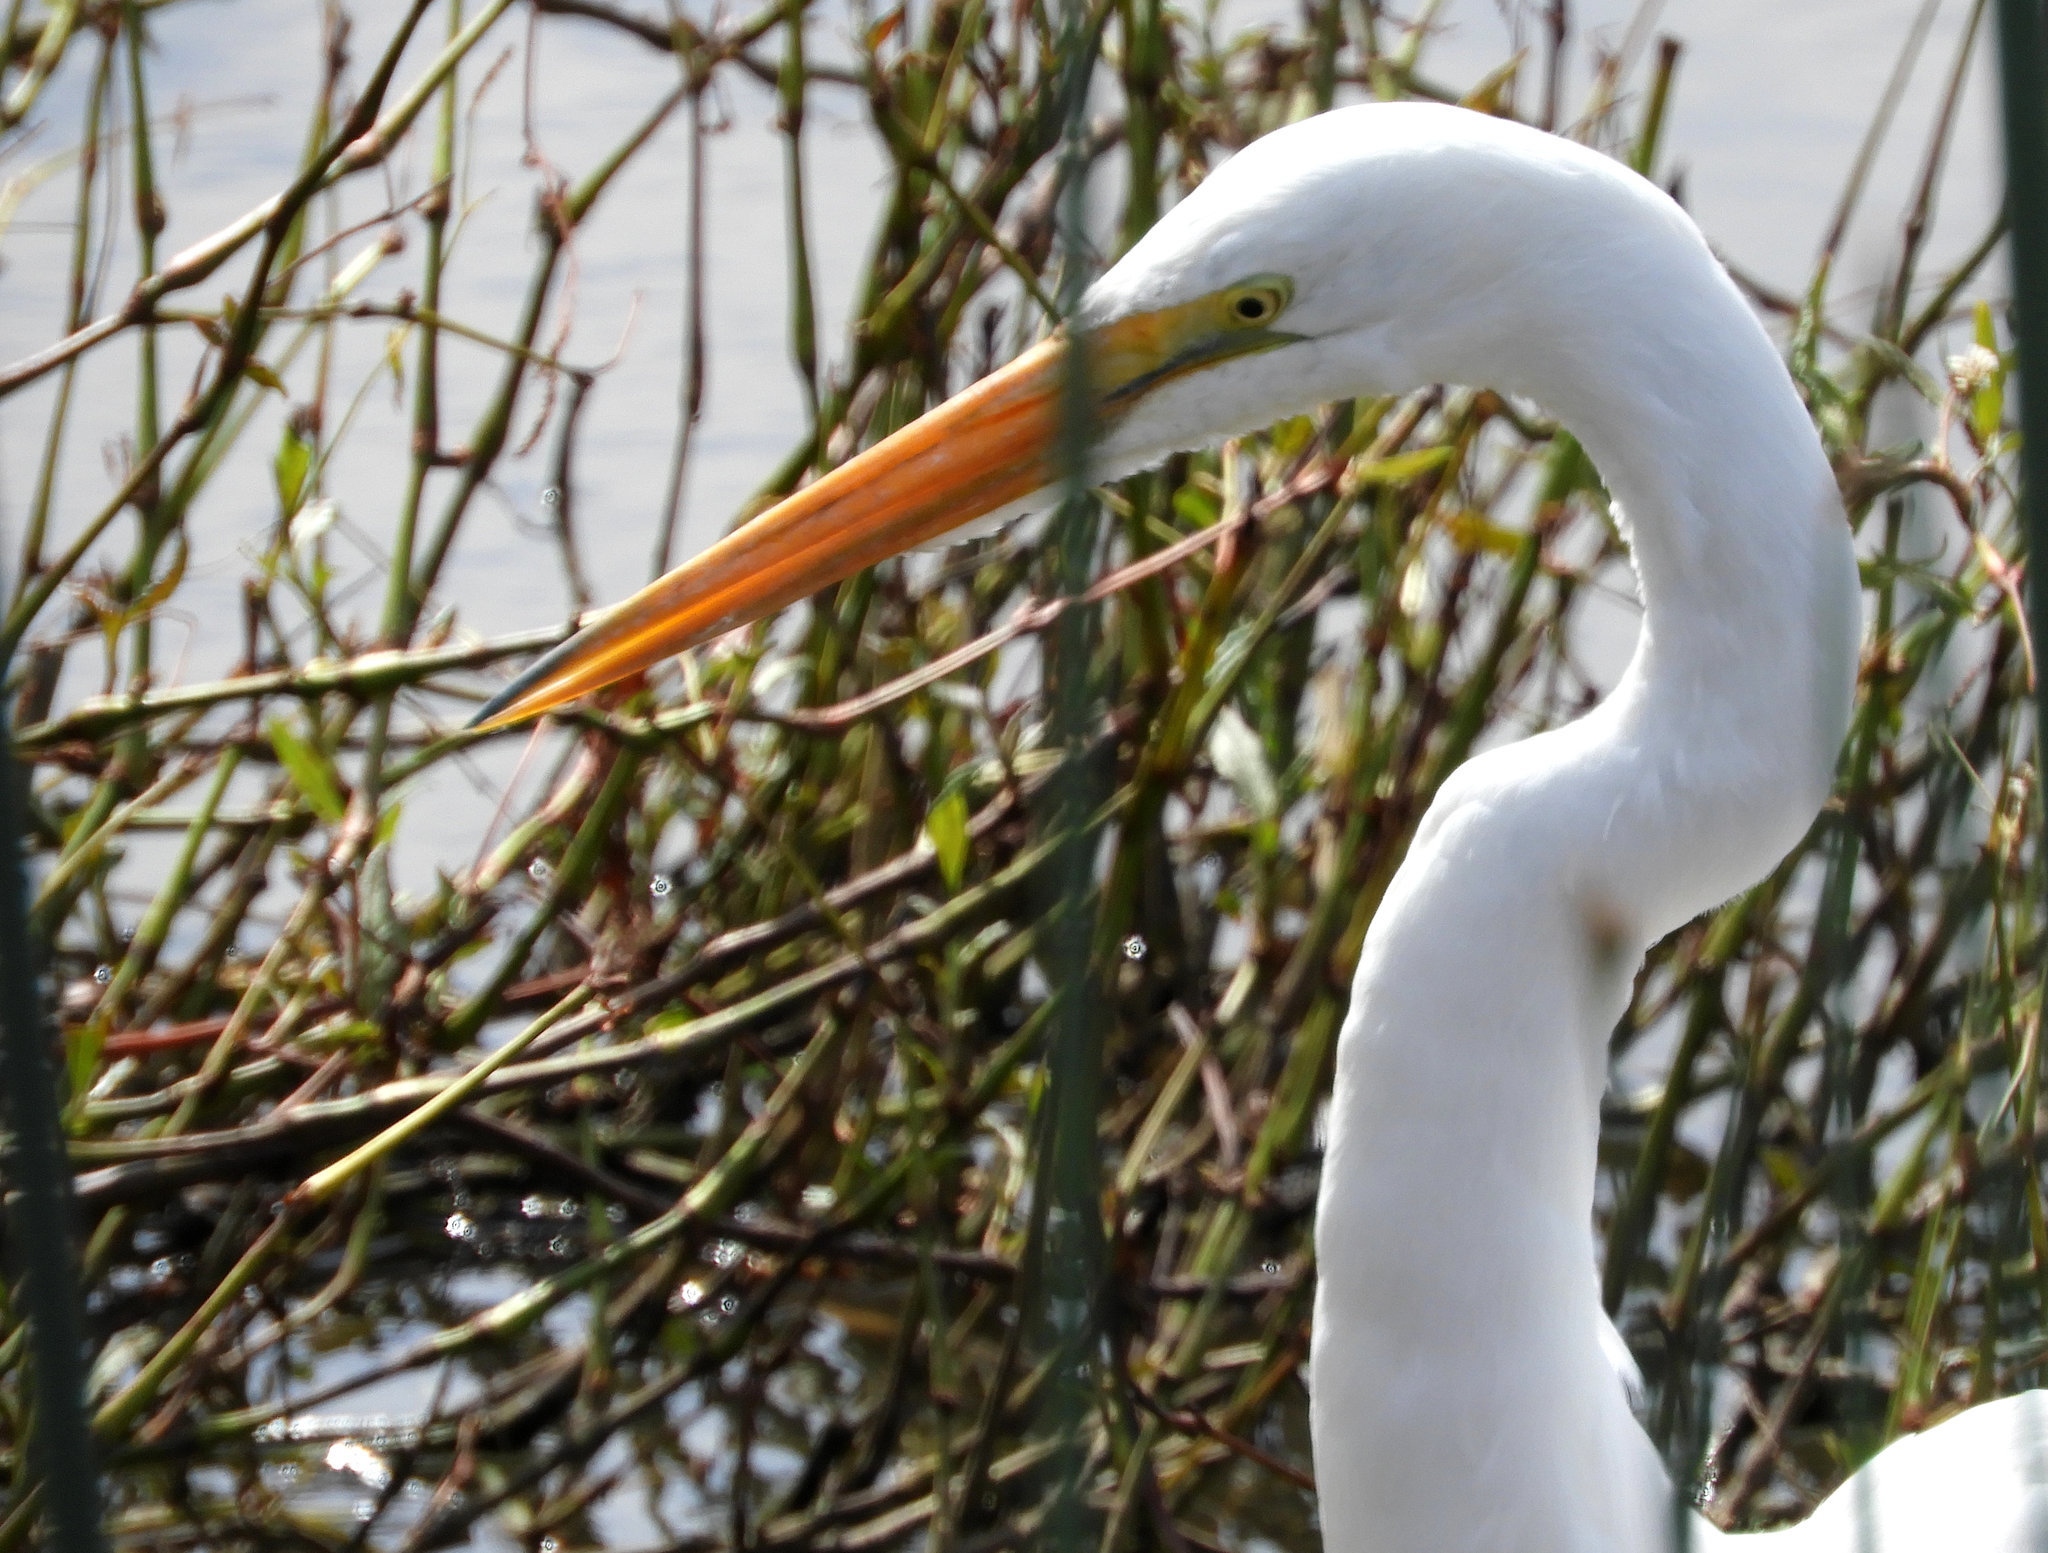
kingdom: Animalia
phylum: Chordata
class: Aves
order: Pelecaniformes
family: Ardeidae
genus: Ardea
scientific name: Ardea alba
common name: Great egret
